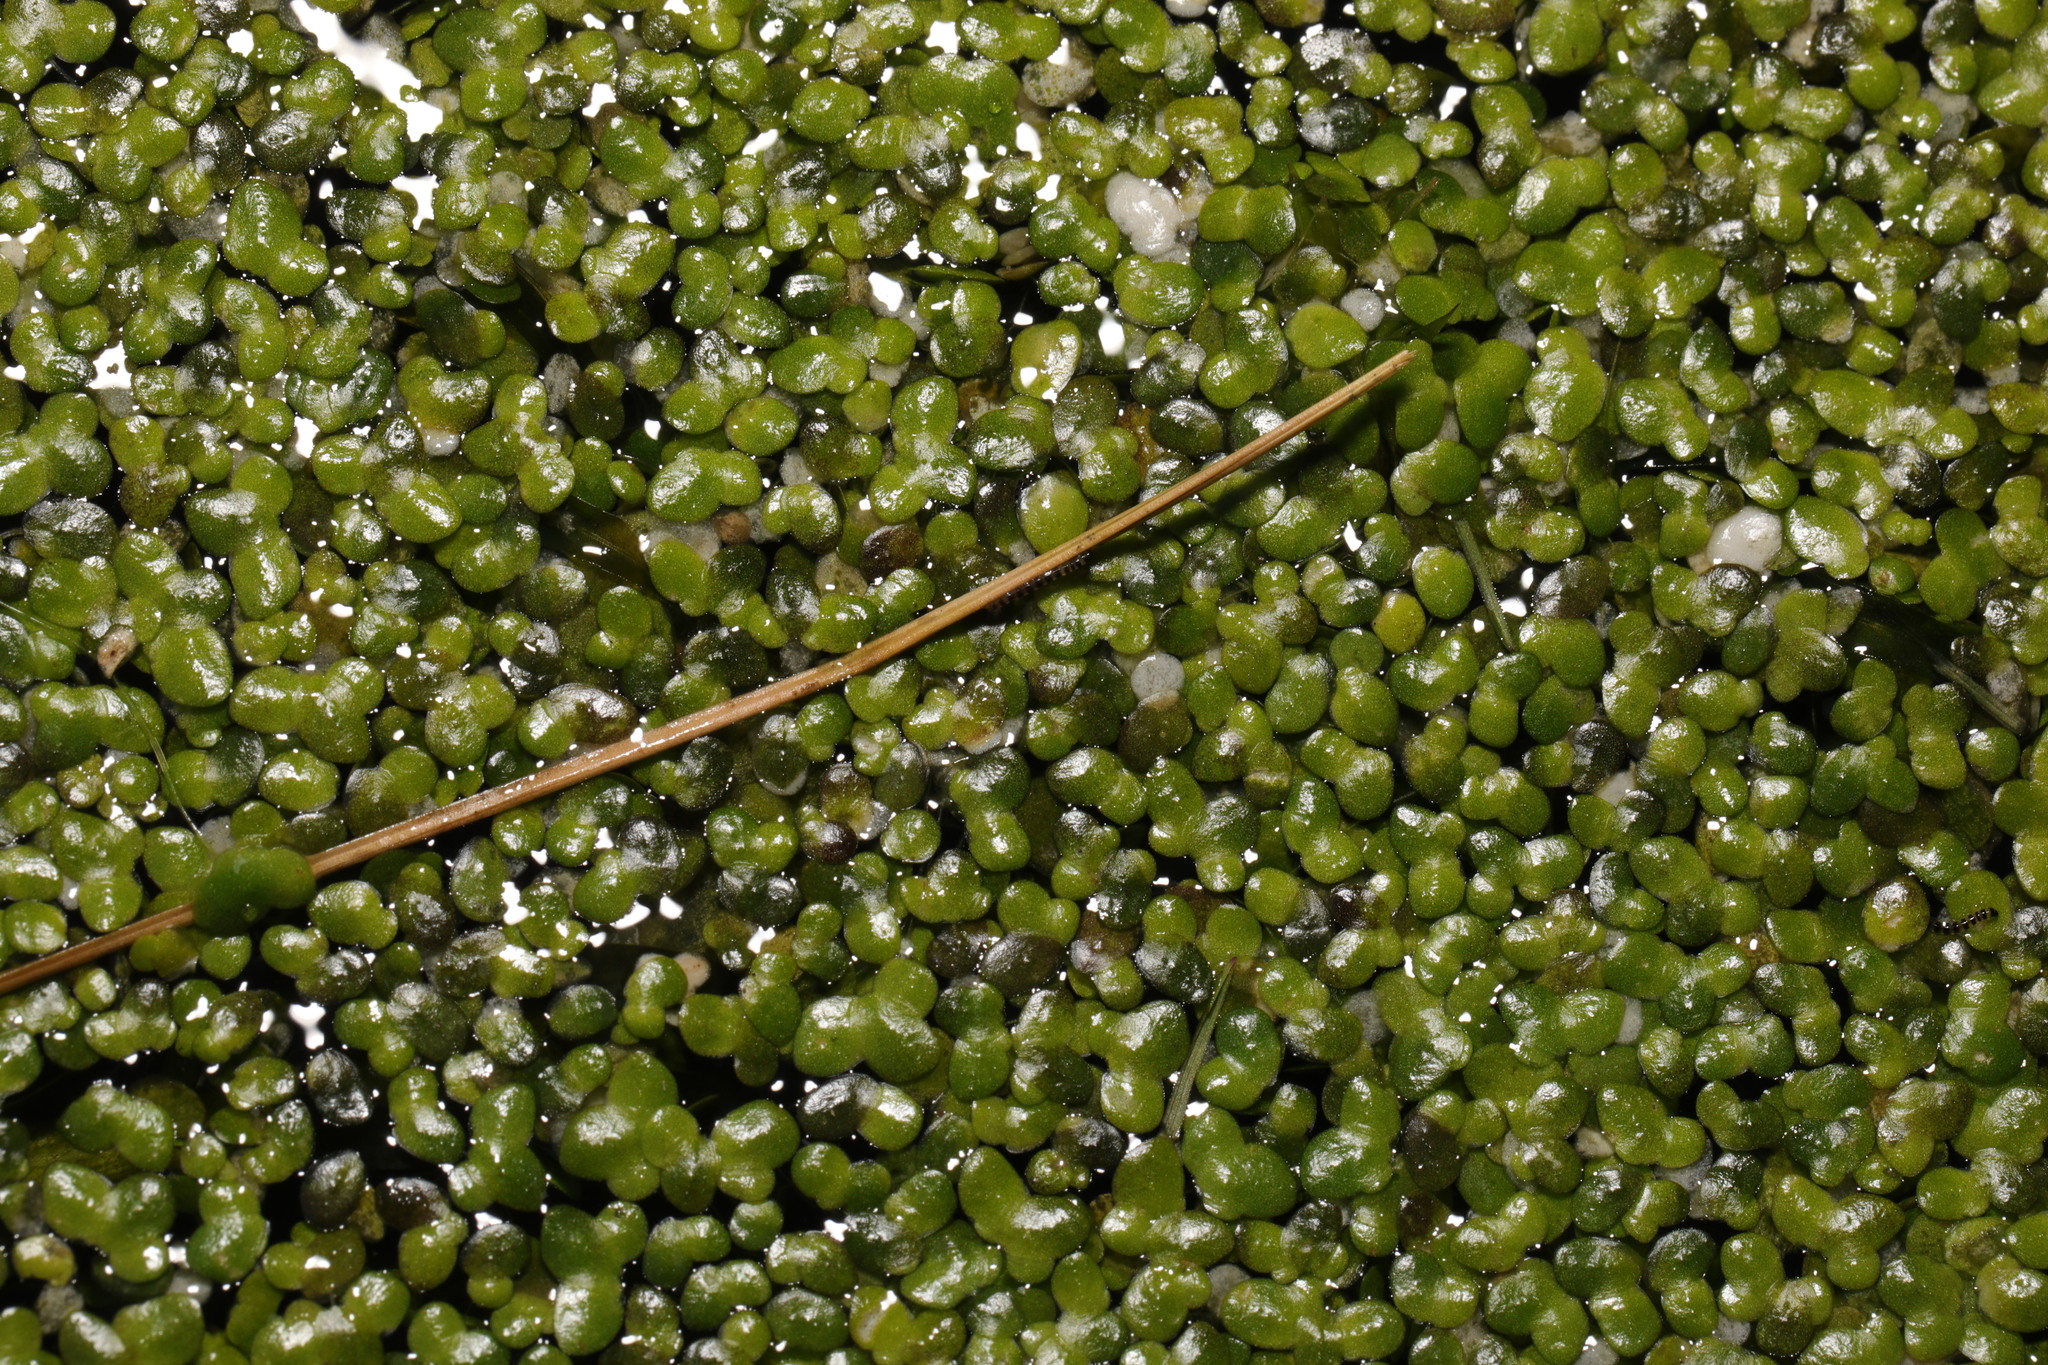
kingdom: Plantae
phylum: Tracheophyta
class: Liliopsida
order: Alismatales
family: Araceae
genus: Lemna
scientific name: Lemna minor
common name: Common duckweed
